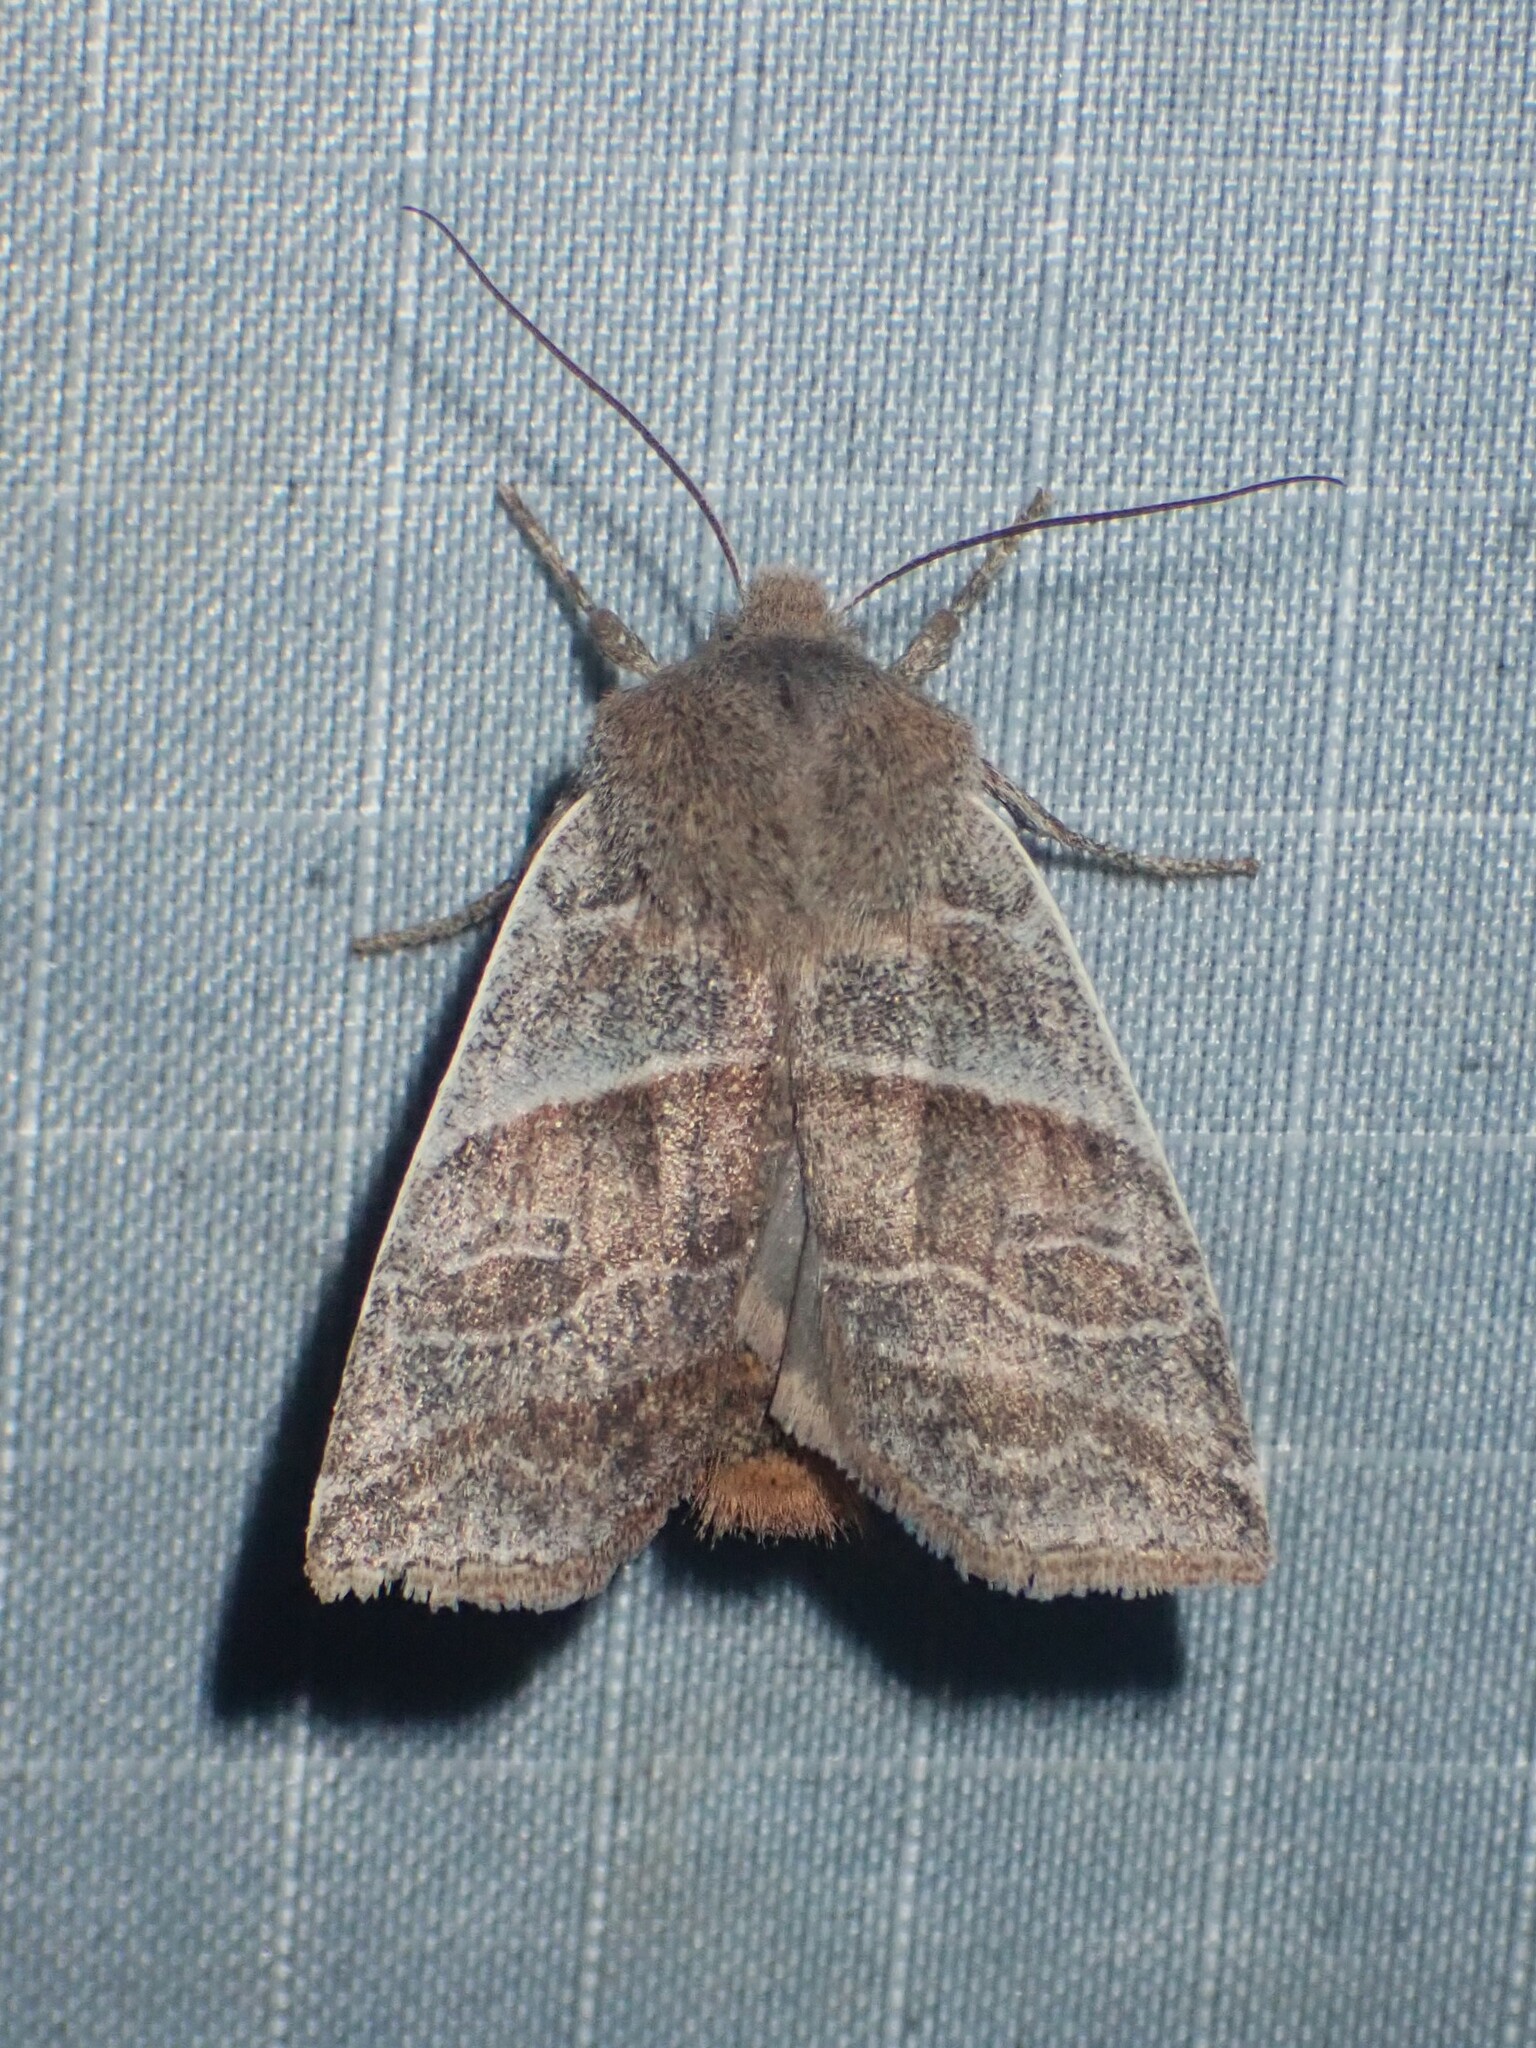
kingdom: Animalia
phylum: Arthropoda
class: Insecta
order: Lepidoptera
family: Noctuidae
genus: Eupsilia
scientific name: Eupsilia devia
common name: Lost sallow
